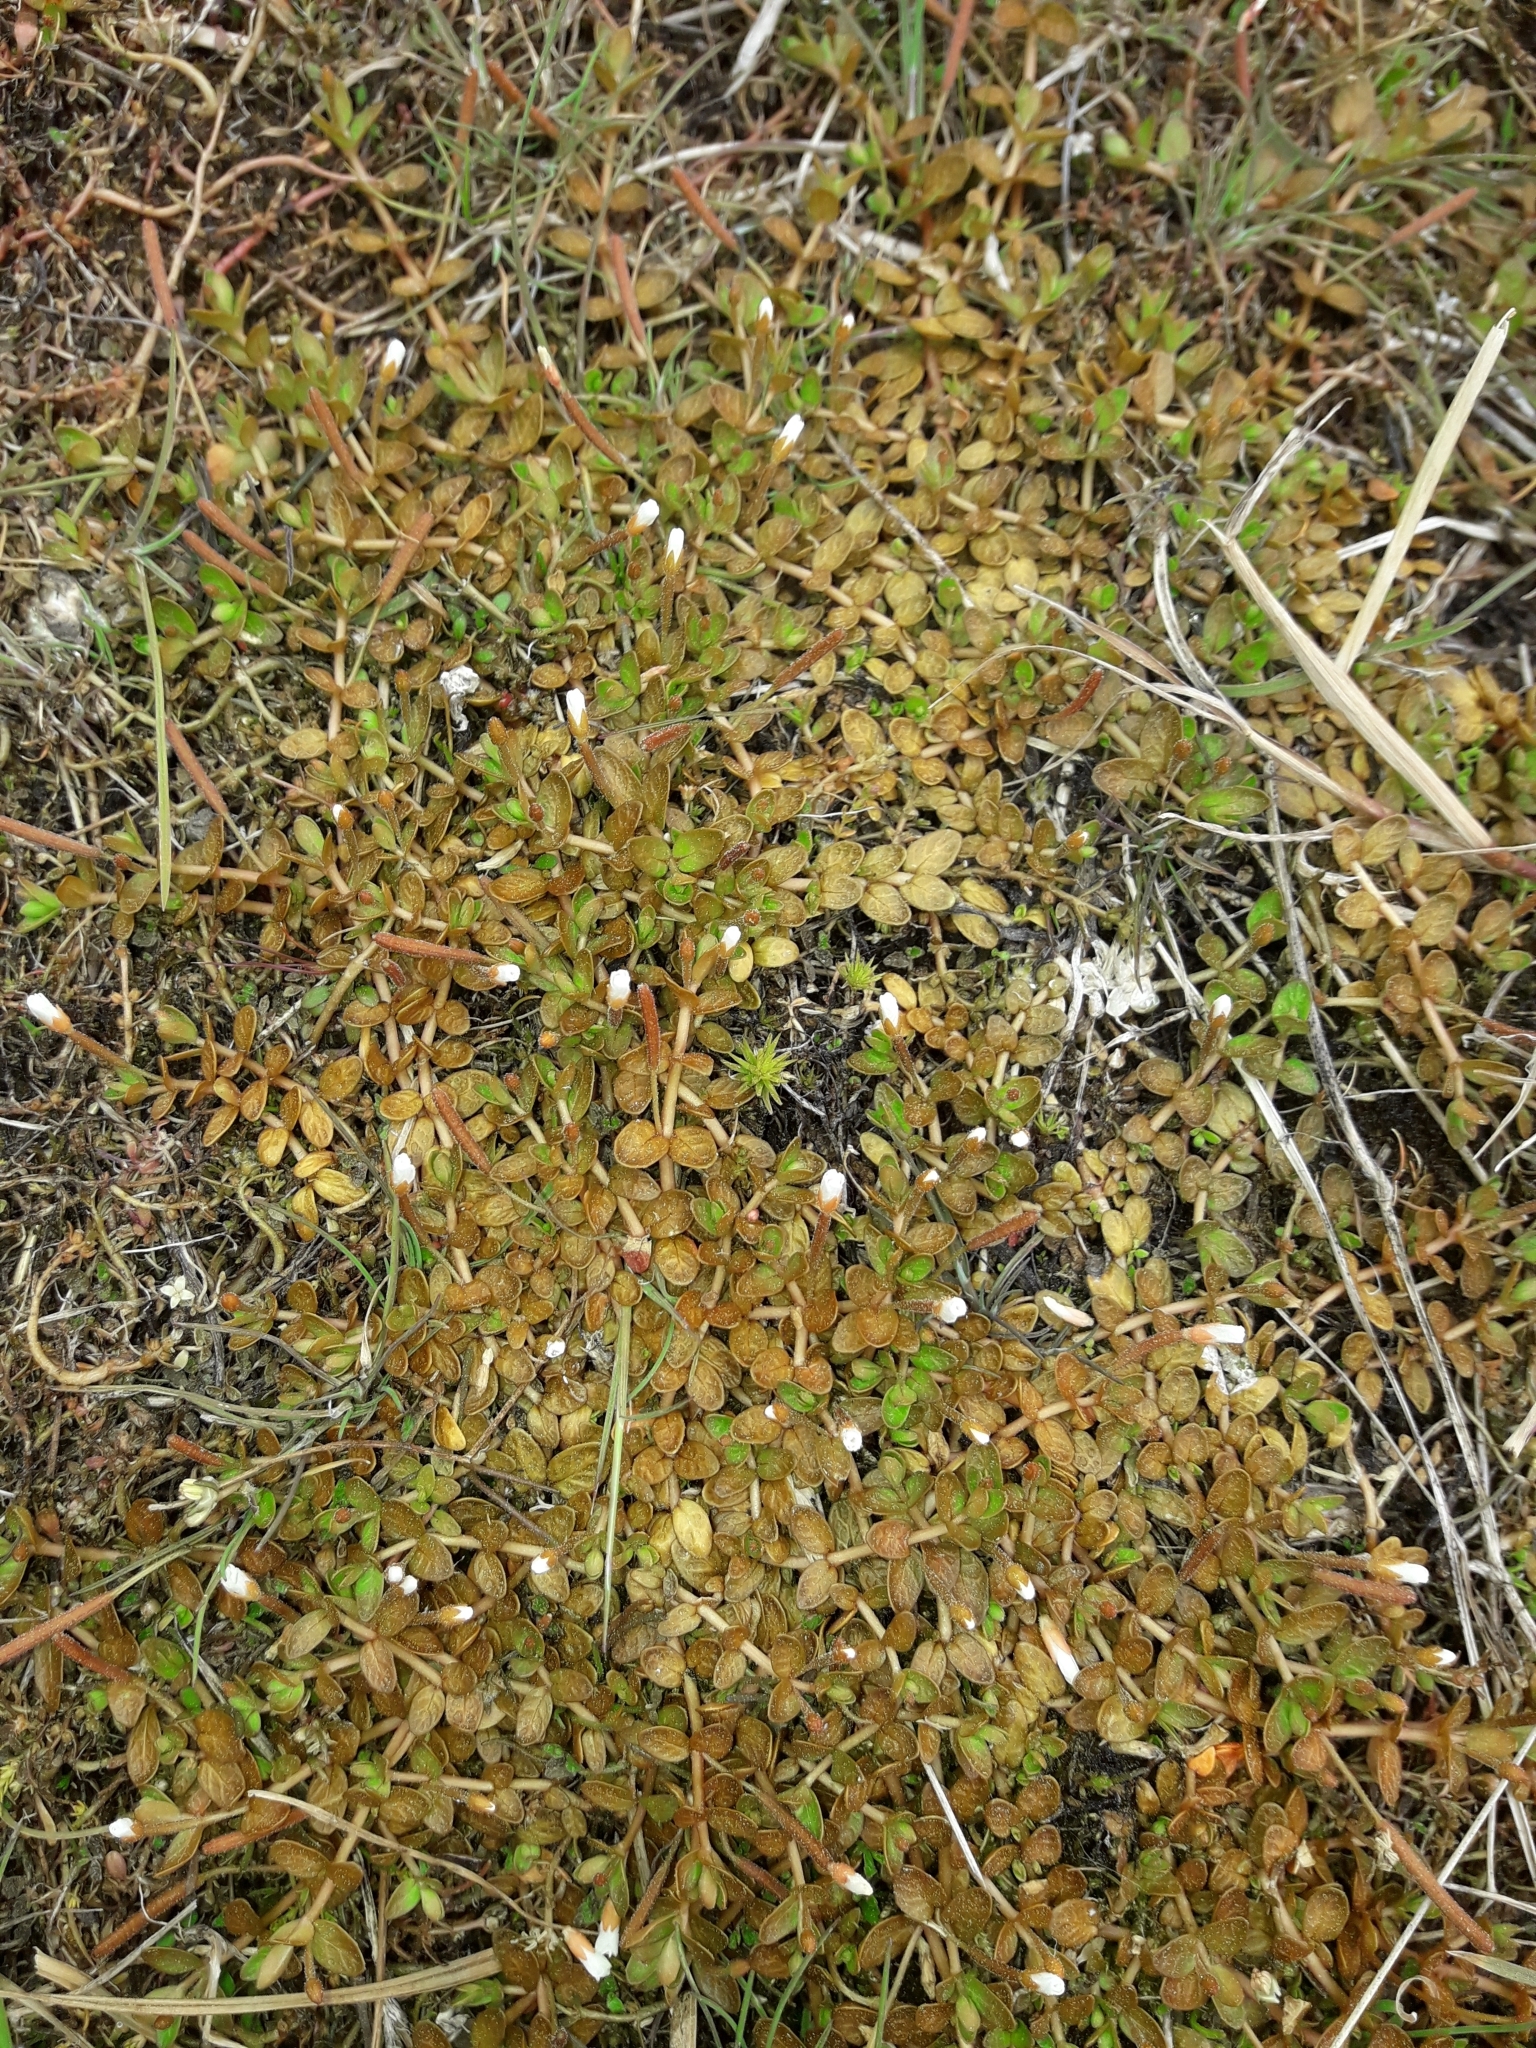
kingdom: Plantae
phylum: Tracheophyta
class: Magnoliopsida
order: Myrtales
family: Onagraceae
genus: Epilobium
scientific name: Epilobium angustum
